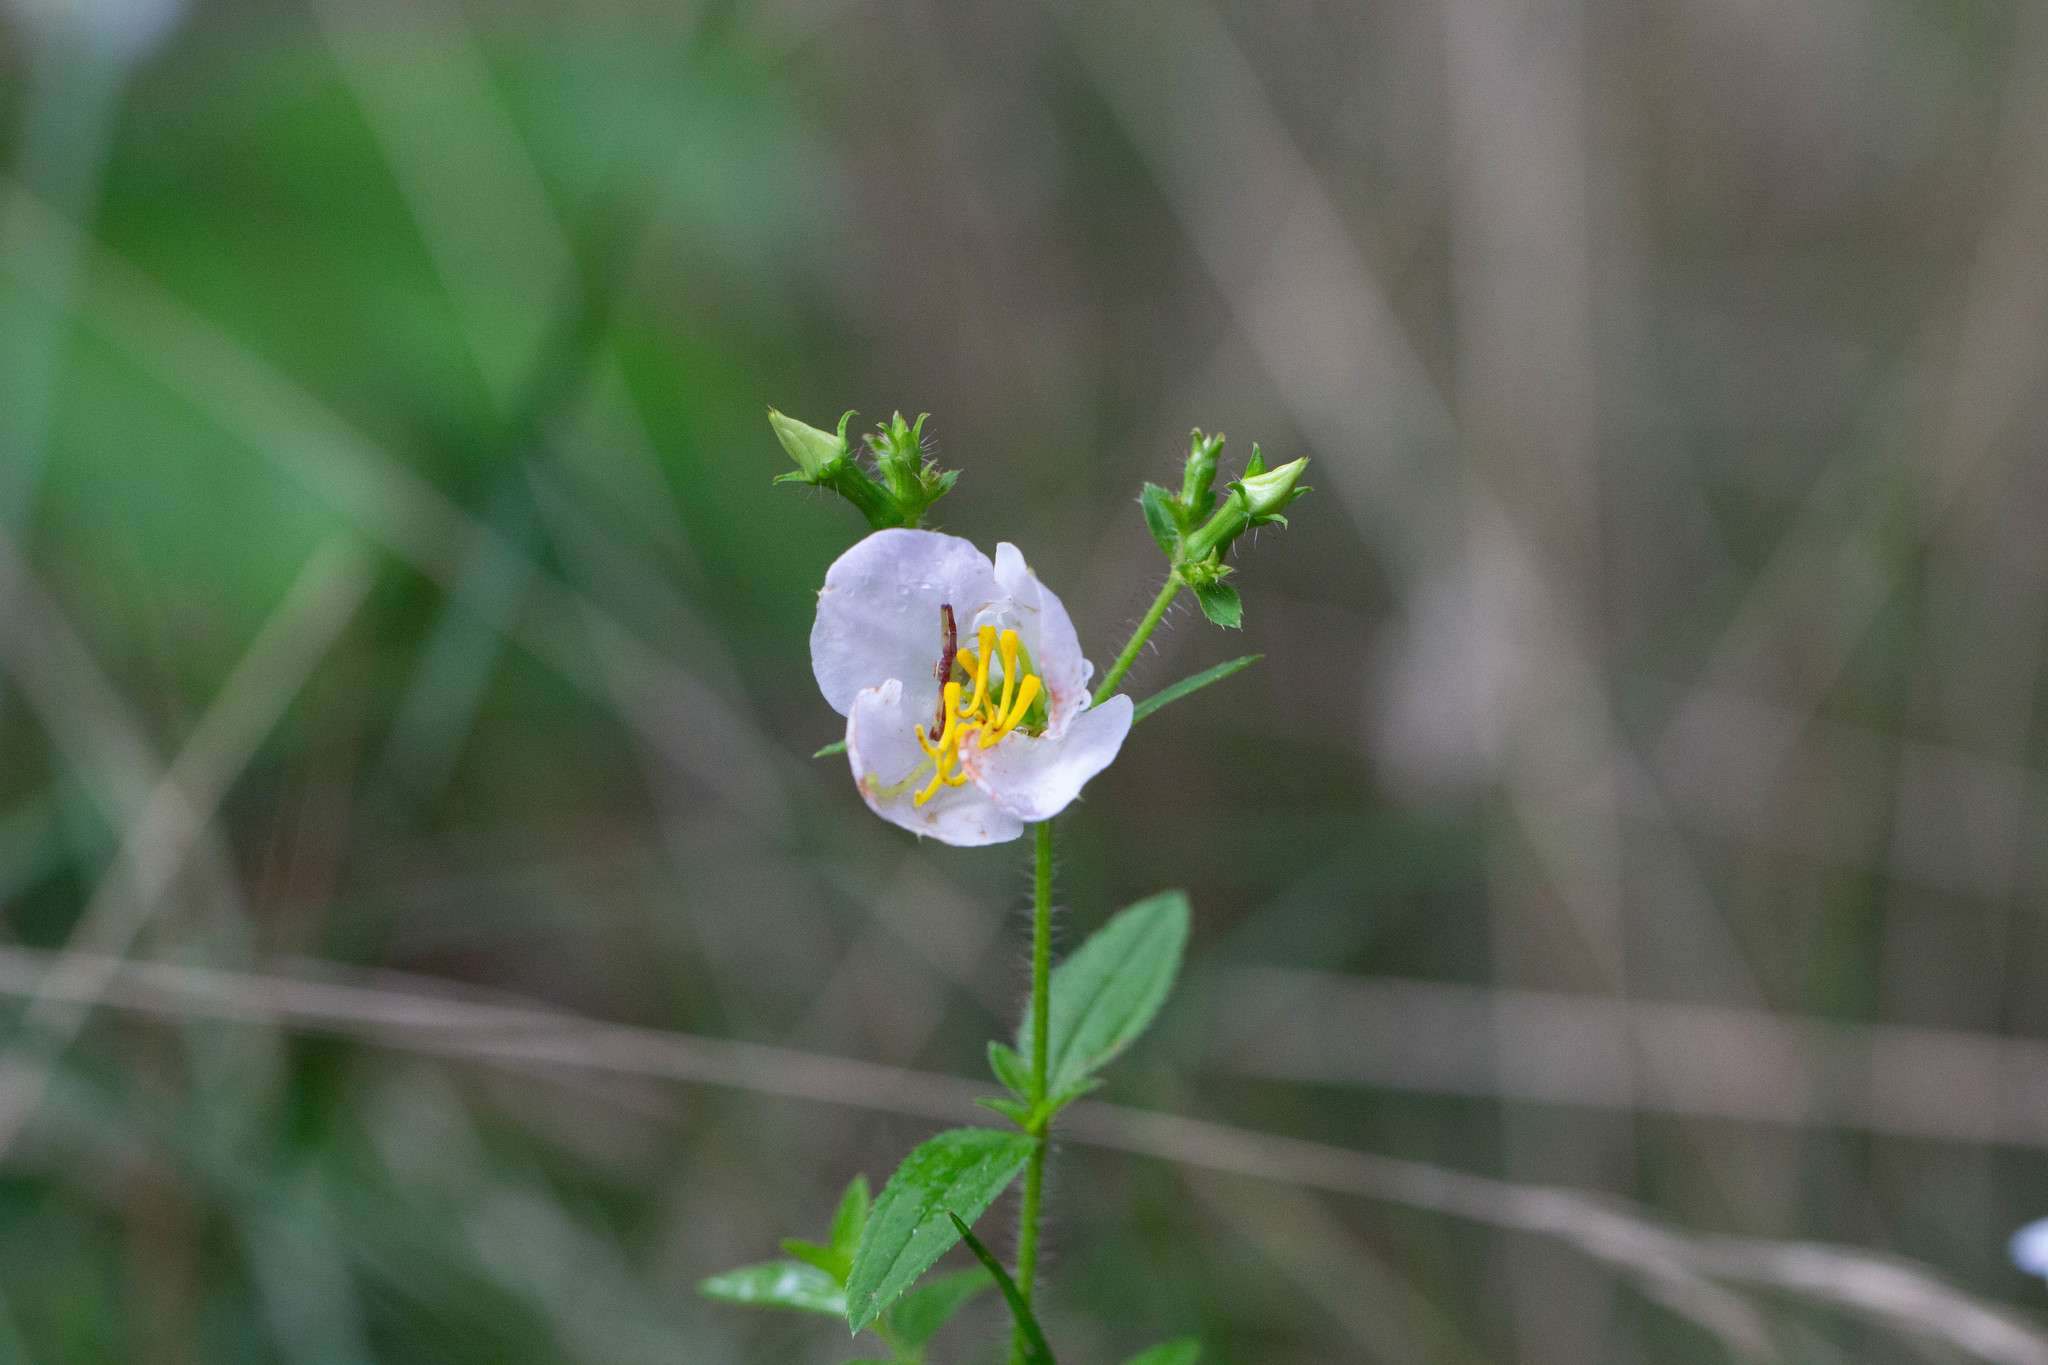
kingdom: Plantae
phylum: Tracheophyta
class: Magnoliopsida
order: Myrtales
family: Melastomataceae
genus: Rhexia
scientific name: Rhexia mariana
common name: Dull meadow-pitcher
